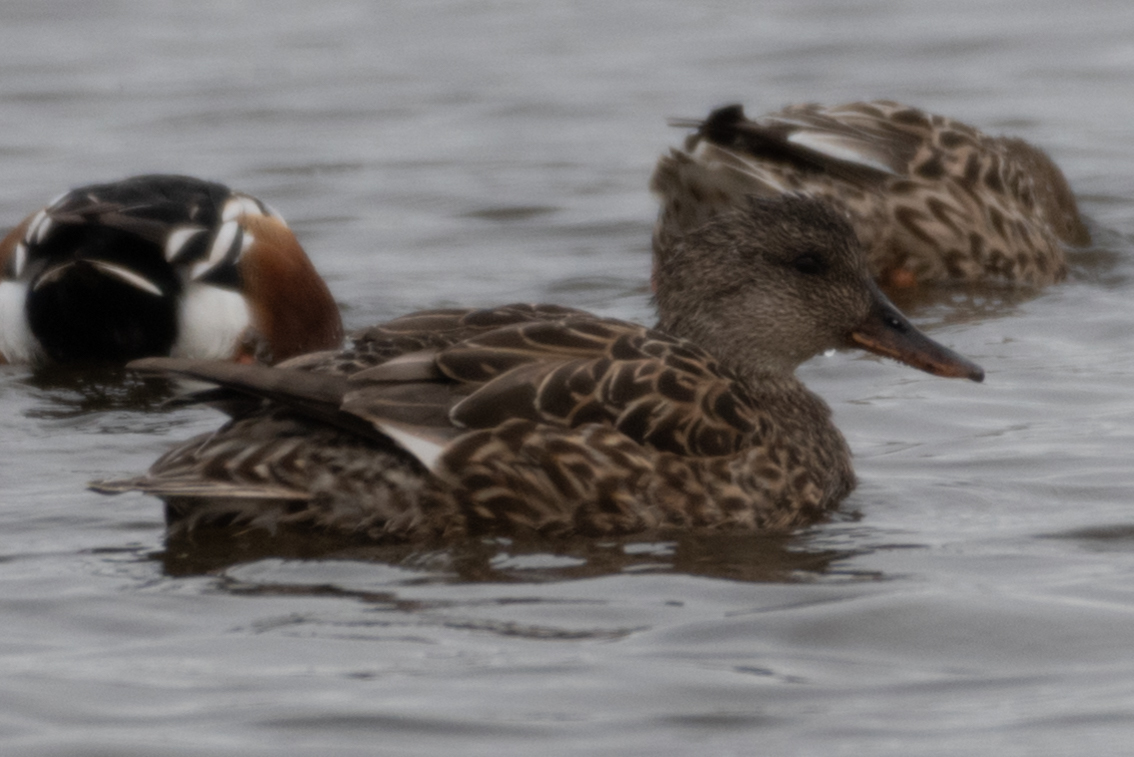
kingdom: Animalia
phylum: Chordata
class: Aves
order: Anseriformes
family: Anatidae
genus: Spatula
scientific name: Spatula clypeata
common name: Northern shoveler
